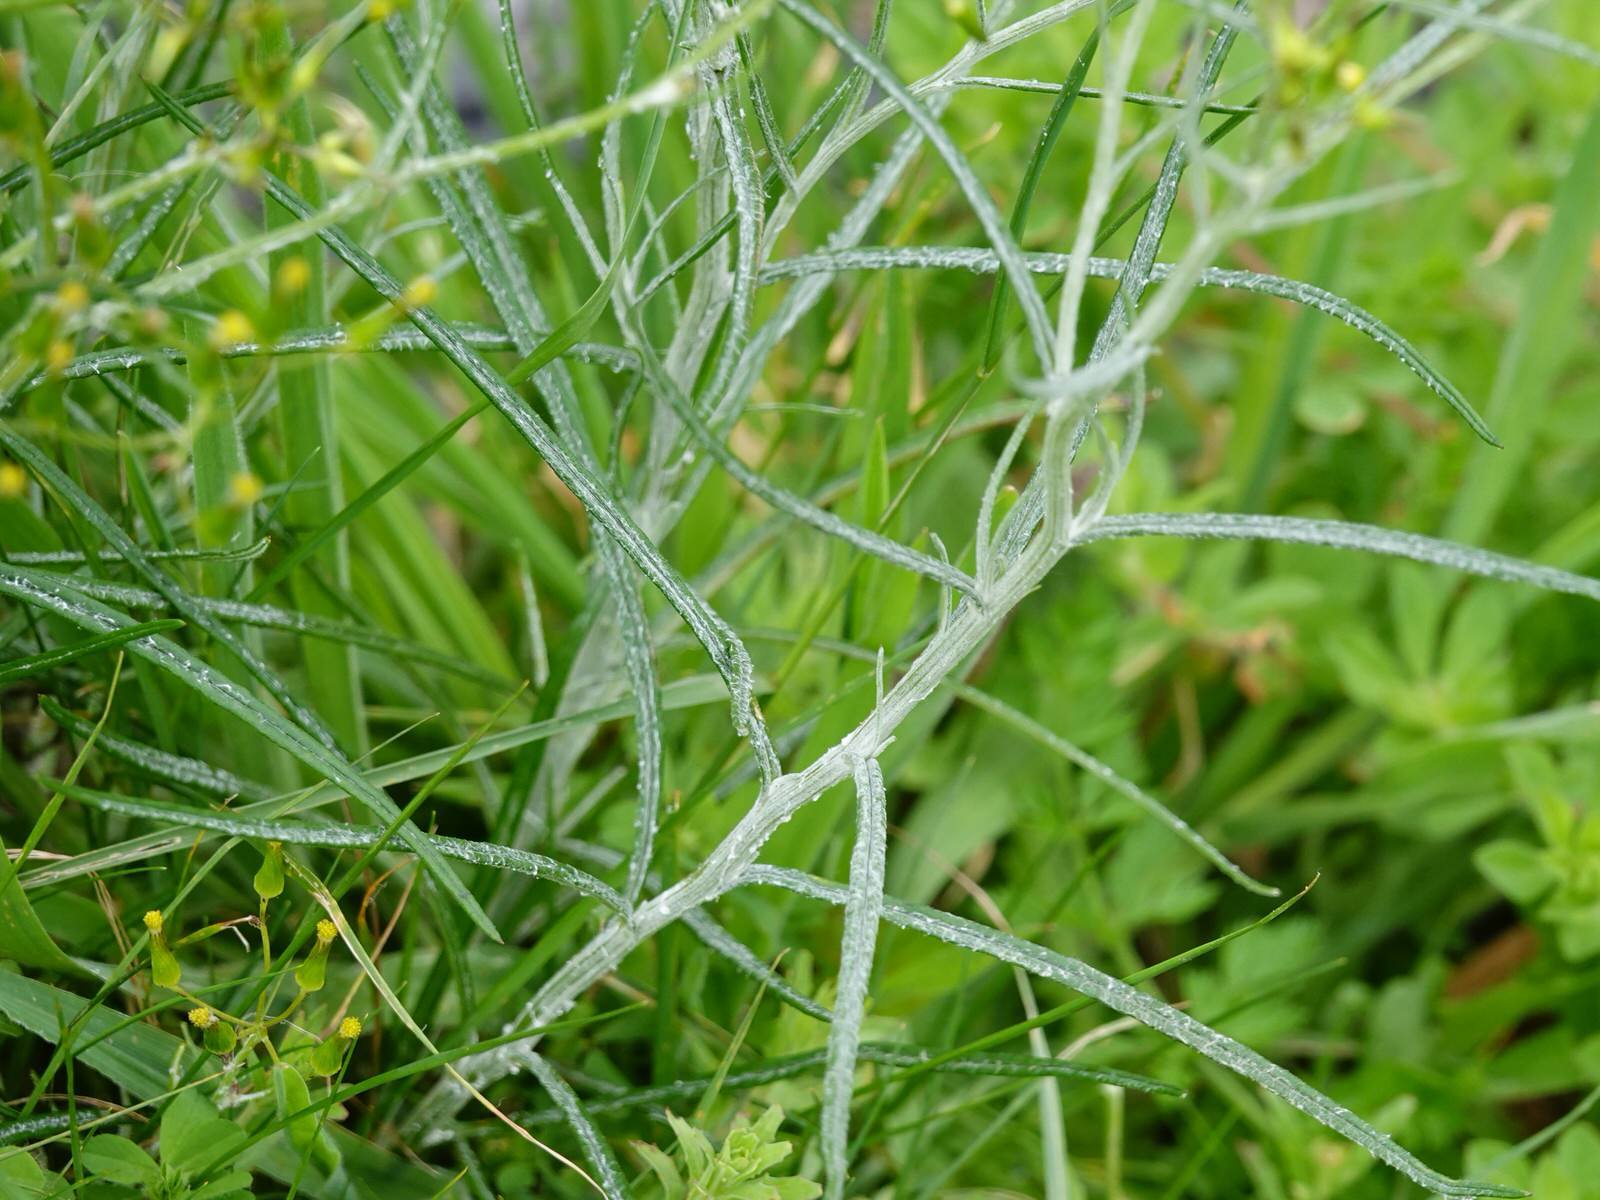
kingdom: Plantae
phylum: Tracheophyta
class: Magnoliopsida
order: Asterales
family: Asteraceae
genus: Senecio
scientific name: Senecio quadridentatus
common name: Cotton fireweed
